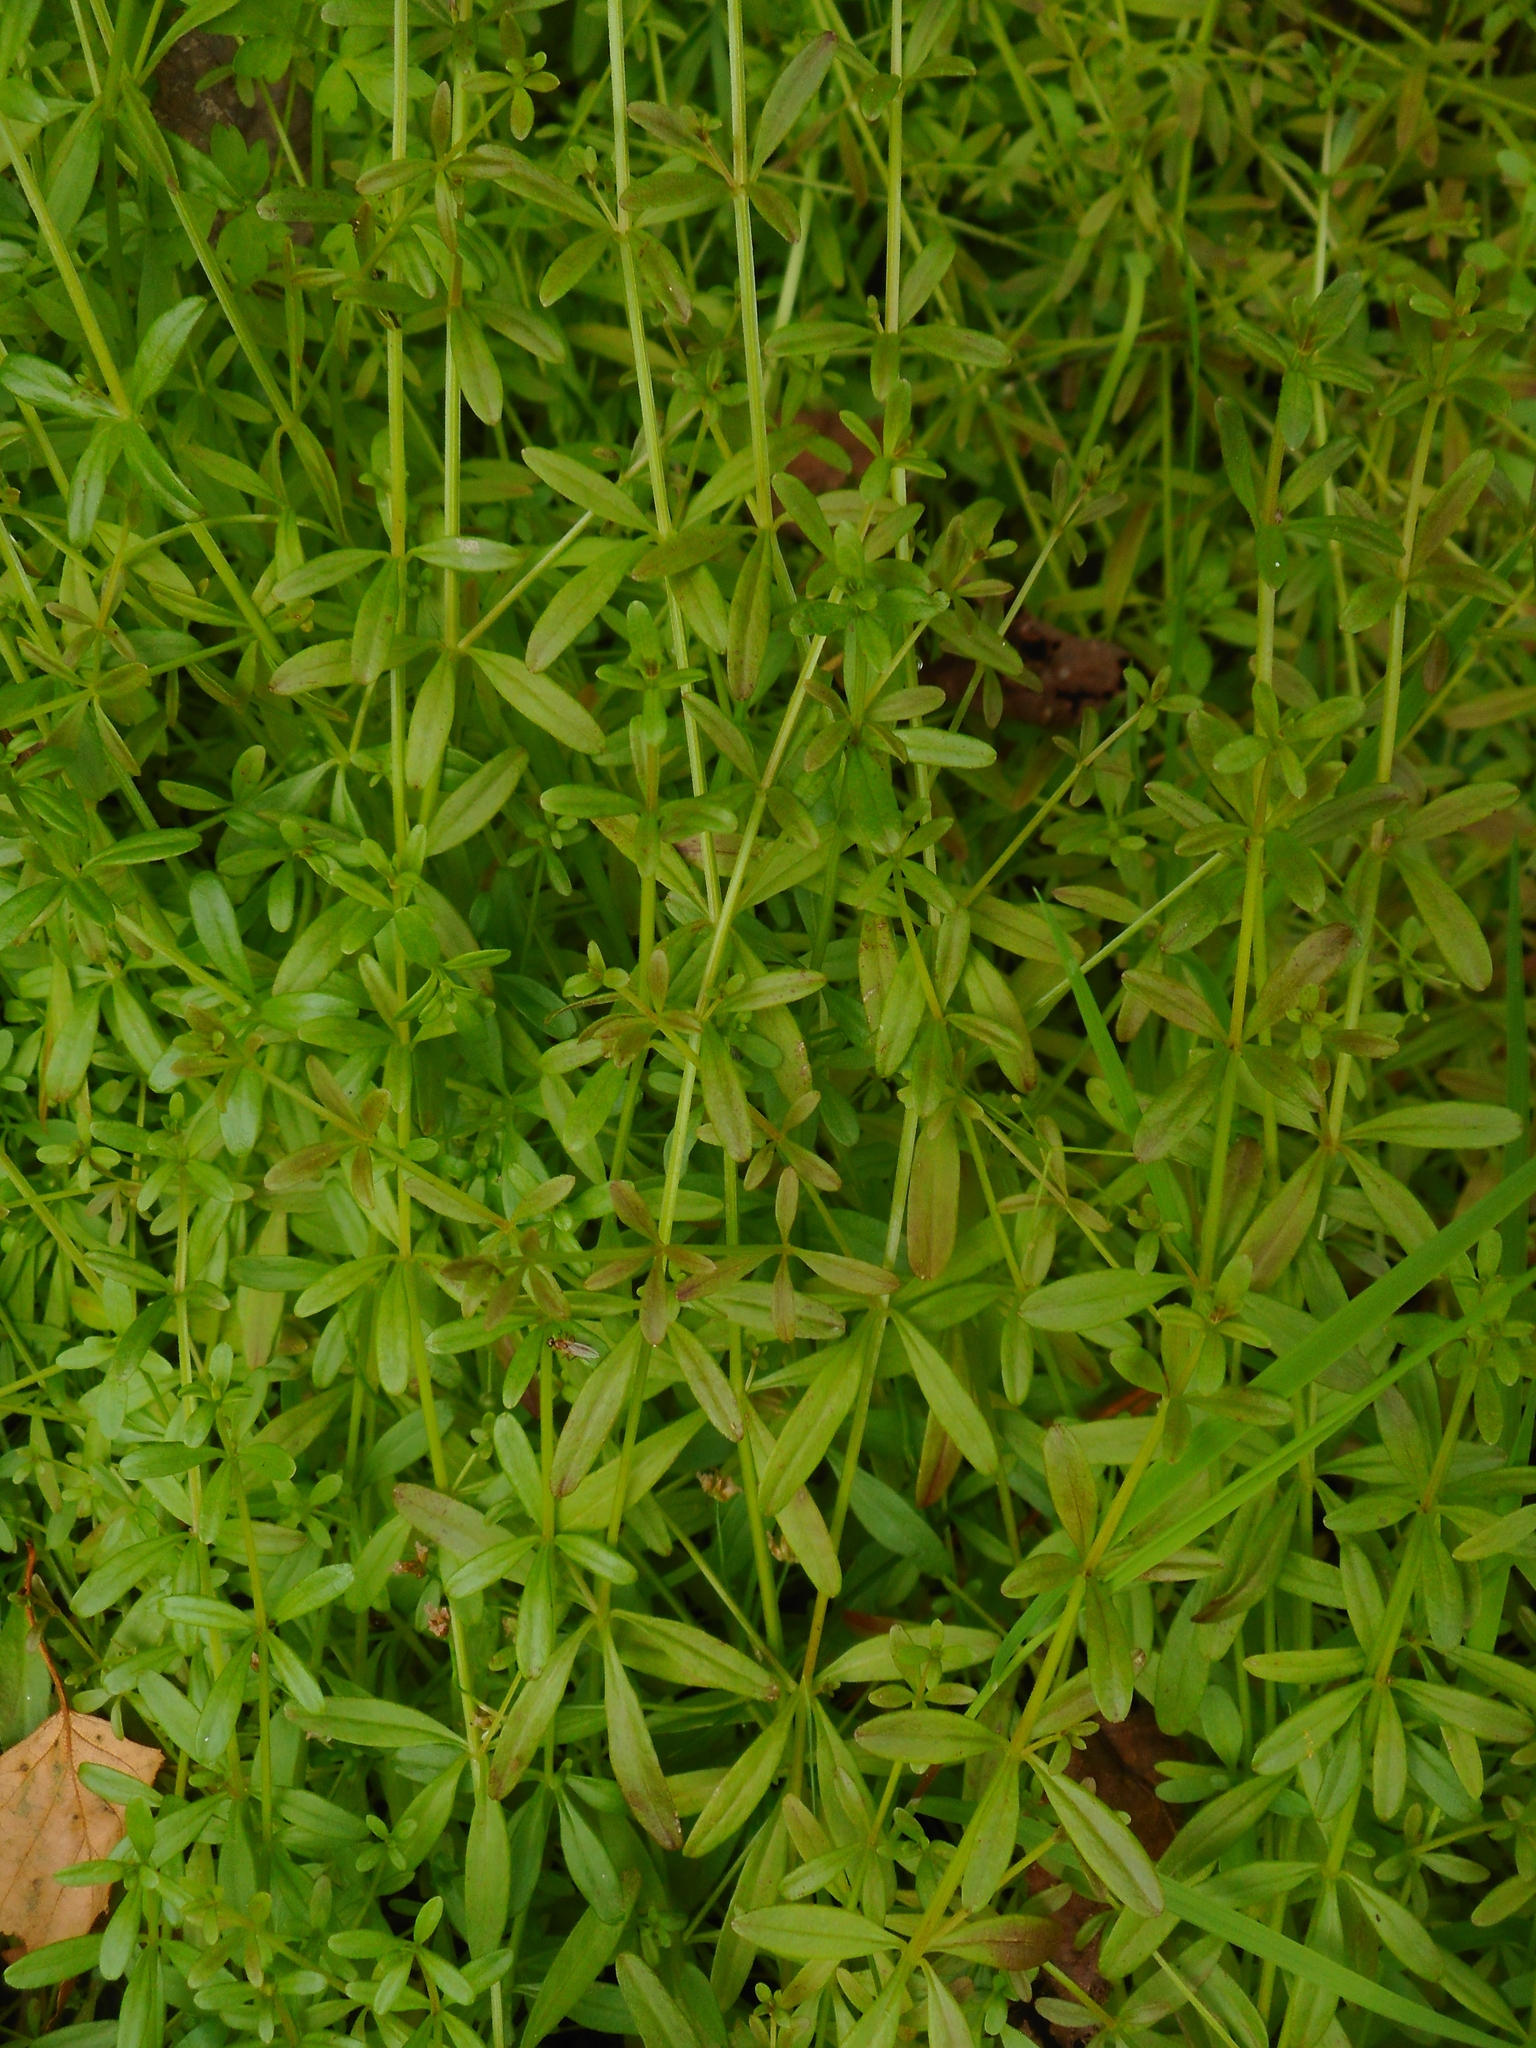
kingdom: Plantae
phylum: Tracheophyta
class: Magnoliopsida
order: Gentianales
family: Rubiaceae
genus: Galium
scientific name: Galium palustre
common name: Common marsh-bedstraw
